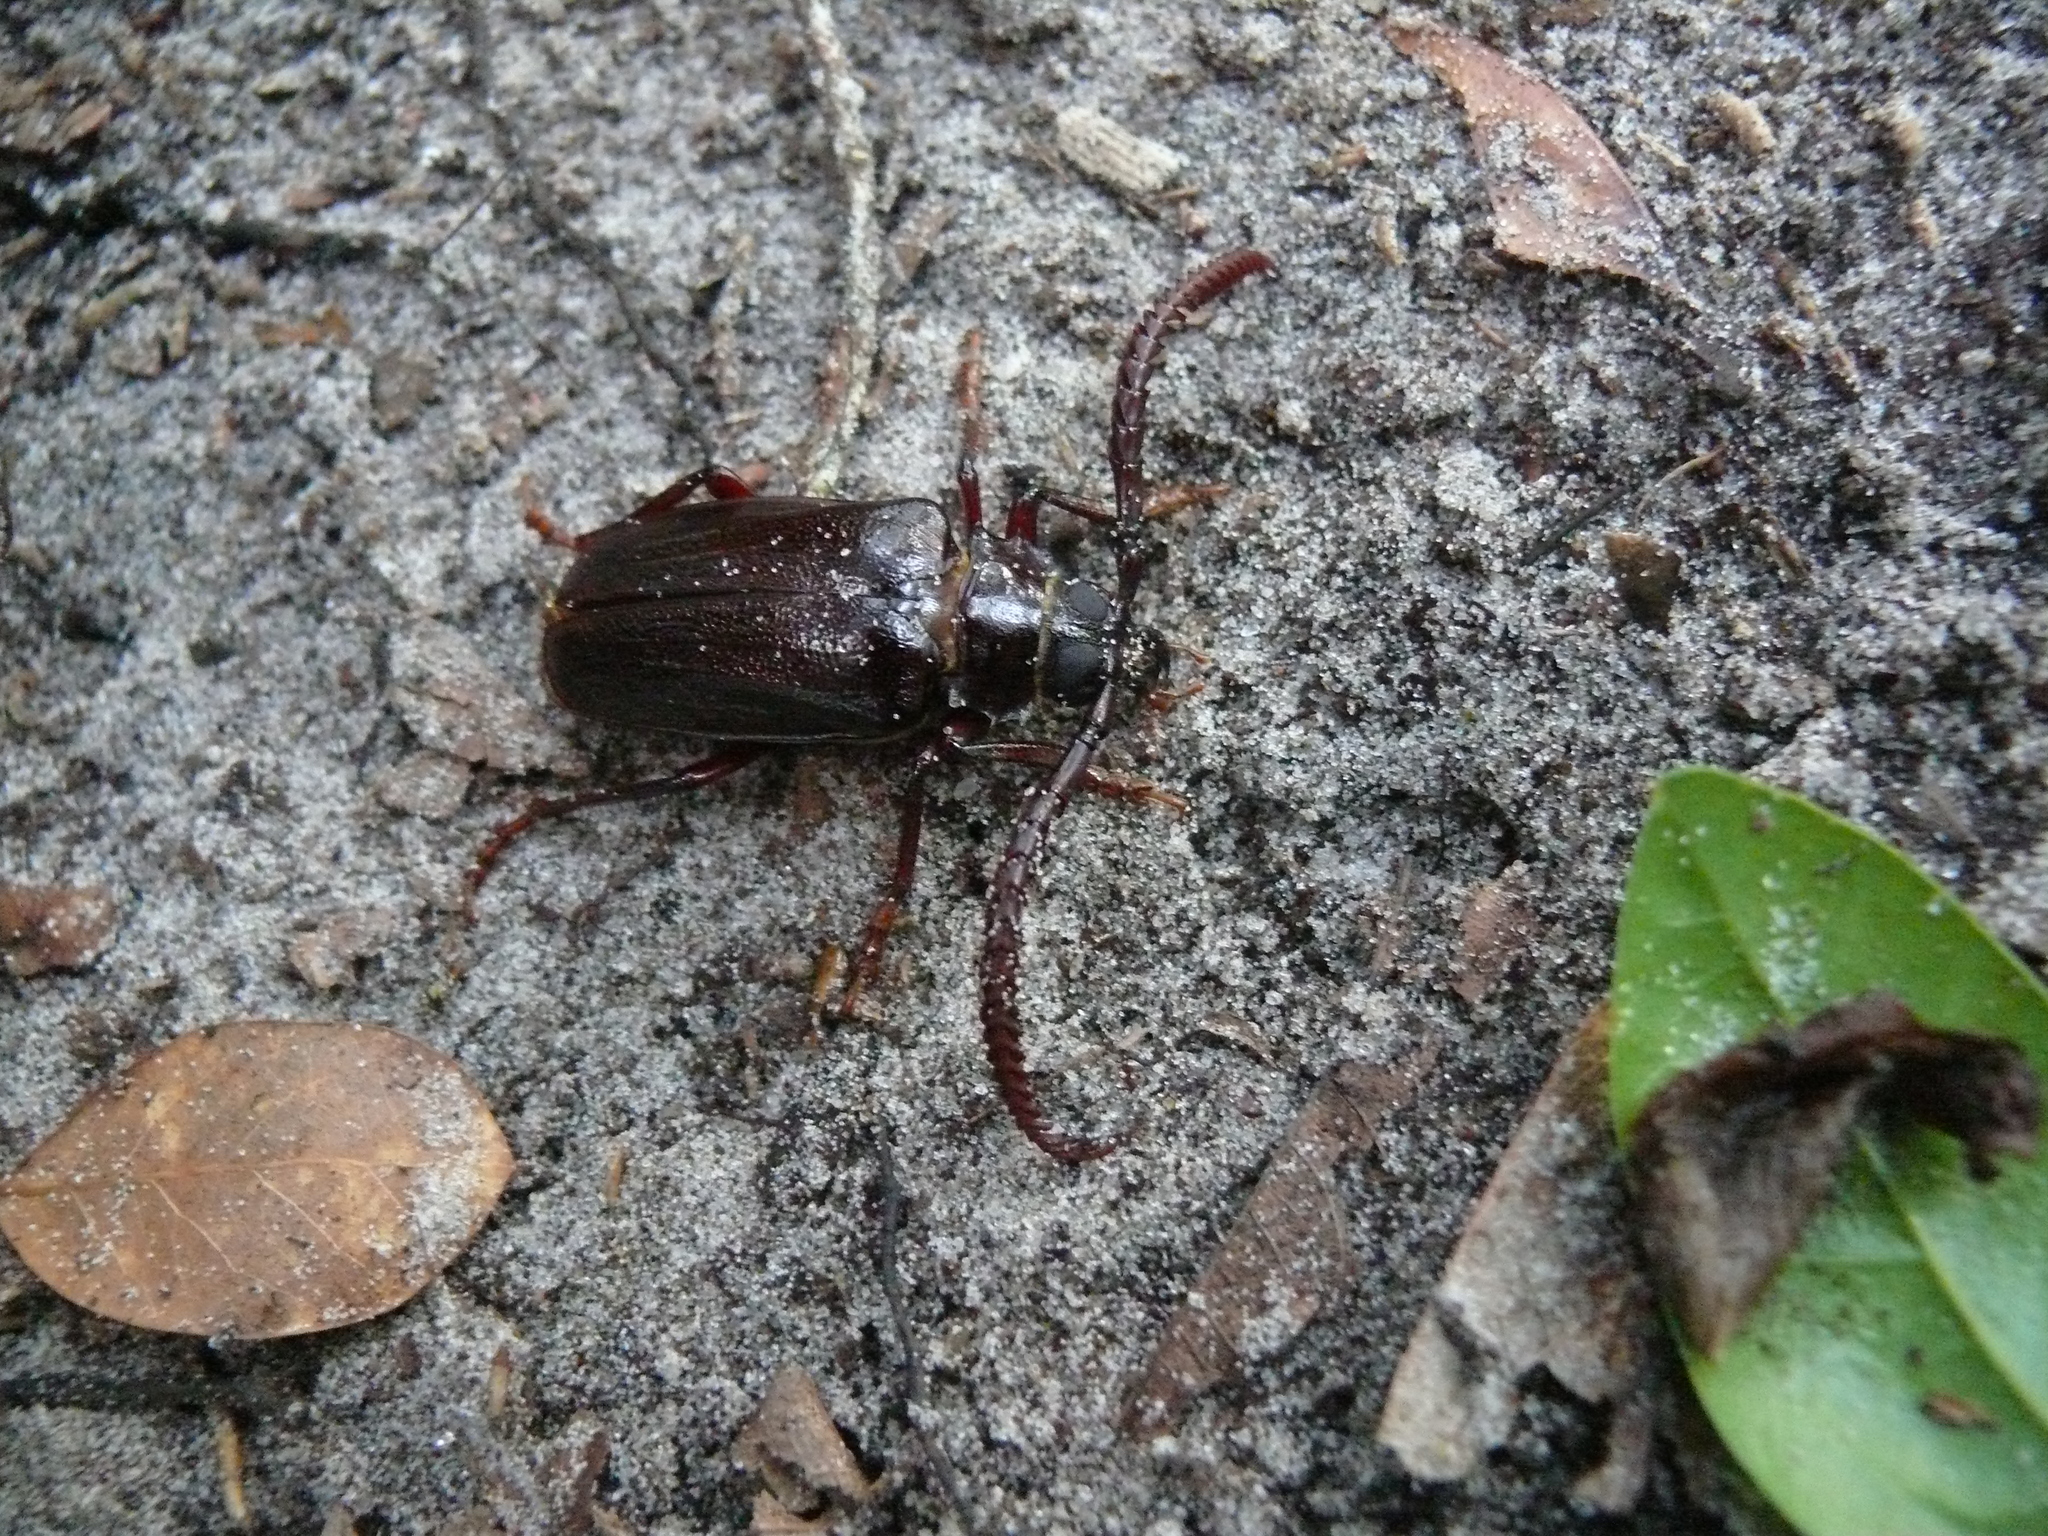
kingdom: Animalia
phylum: Arthropoda
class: Insecta
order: Coleoptera
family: Cerambycidae
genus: Prionus
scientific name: Prionus imbricornis
